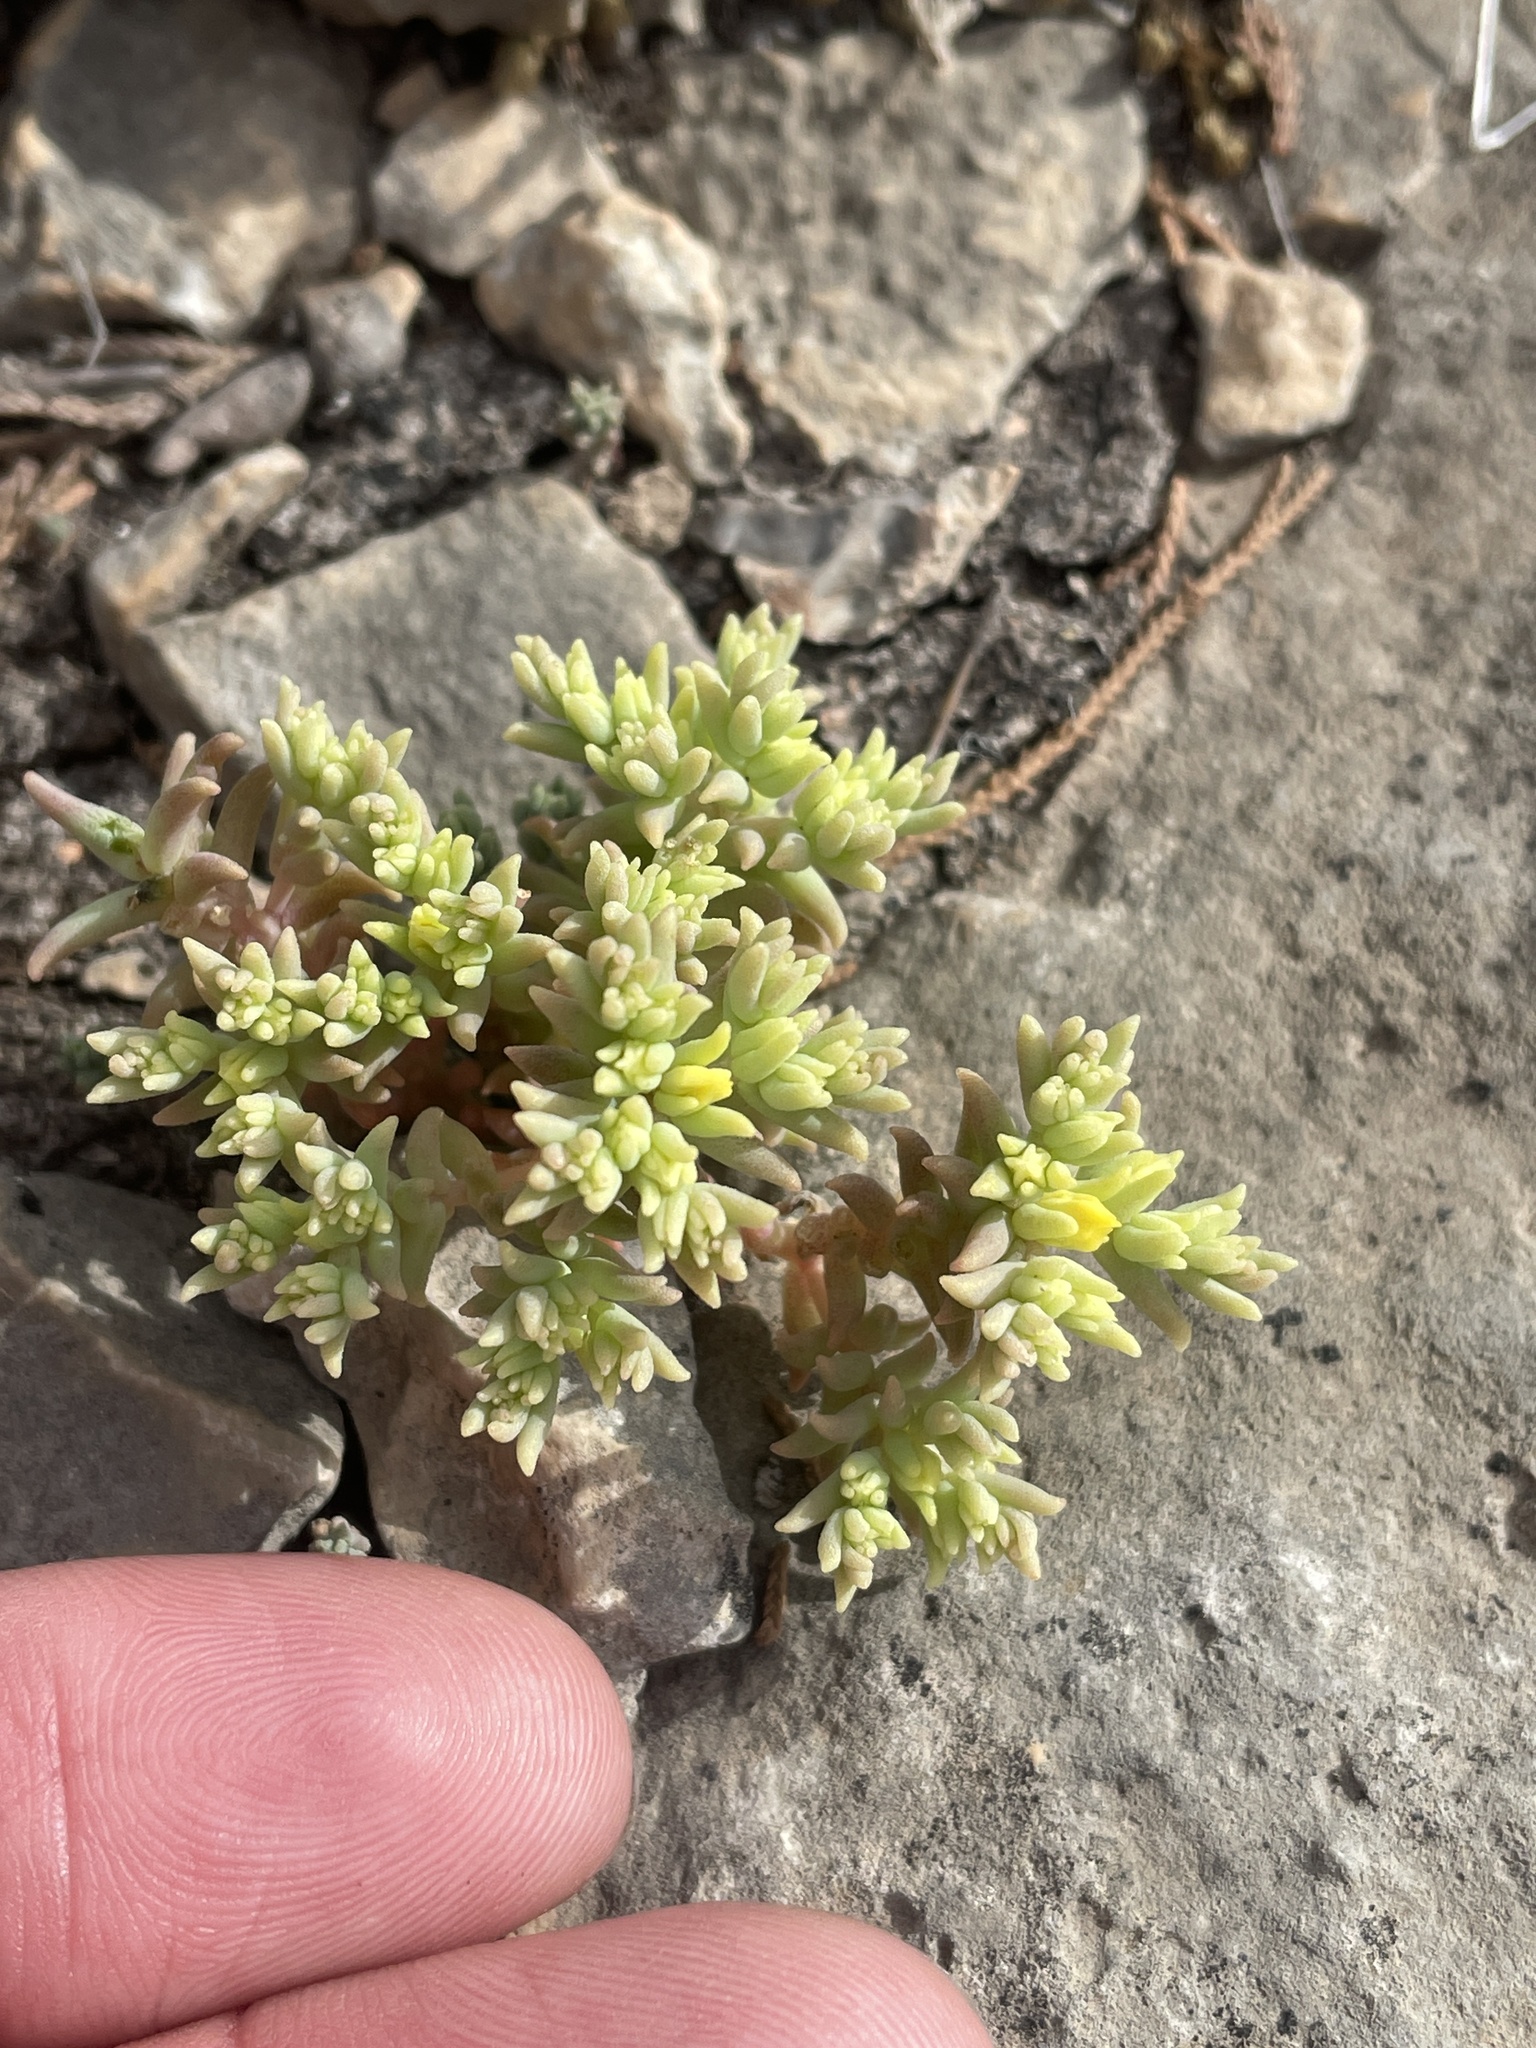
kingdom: Plantae
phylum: Tracheophyta
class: Magnoliopsida
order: Saxifragales
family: Crassulaceae
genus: Sedum
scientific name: Sedum nuttallii
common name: Yellow stonecrop
